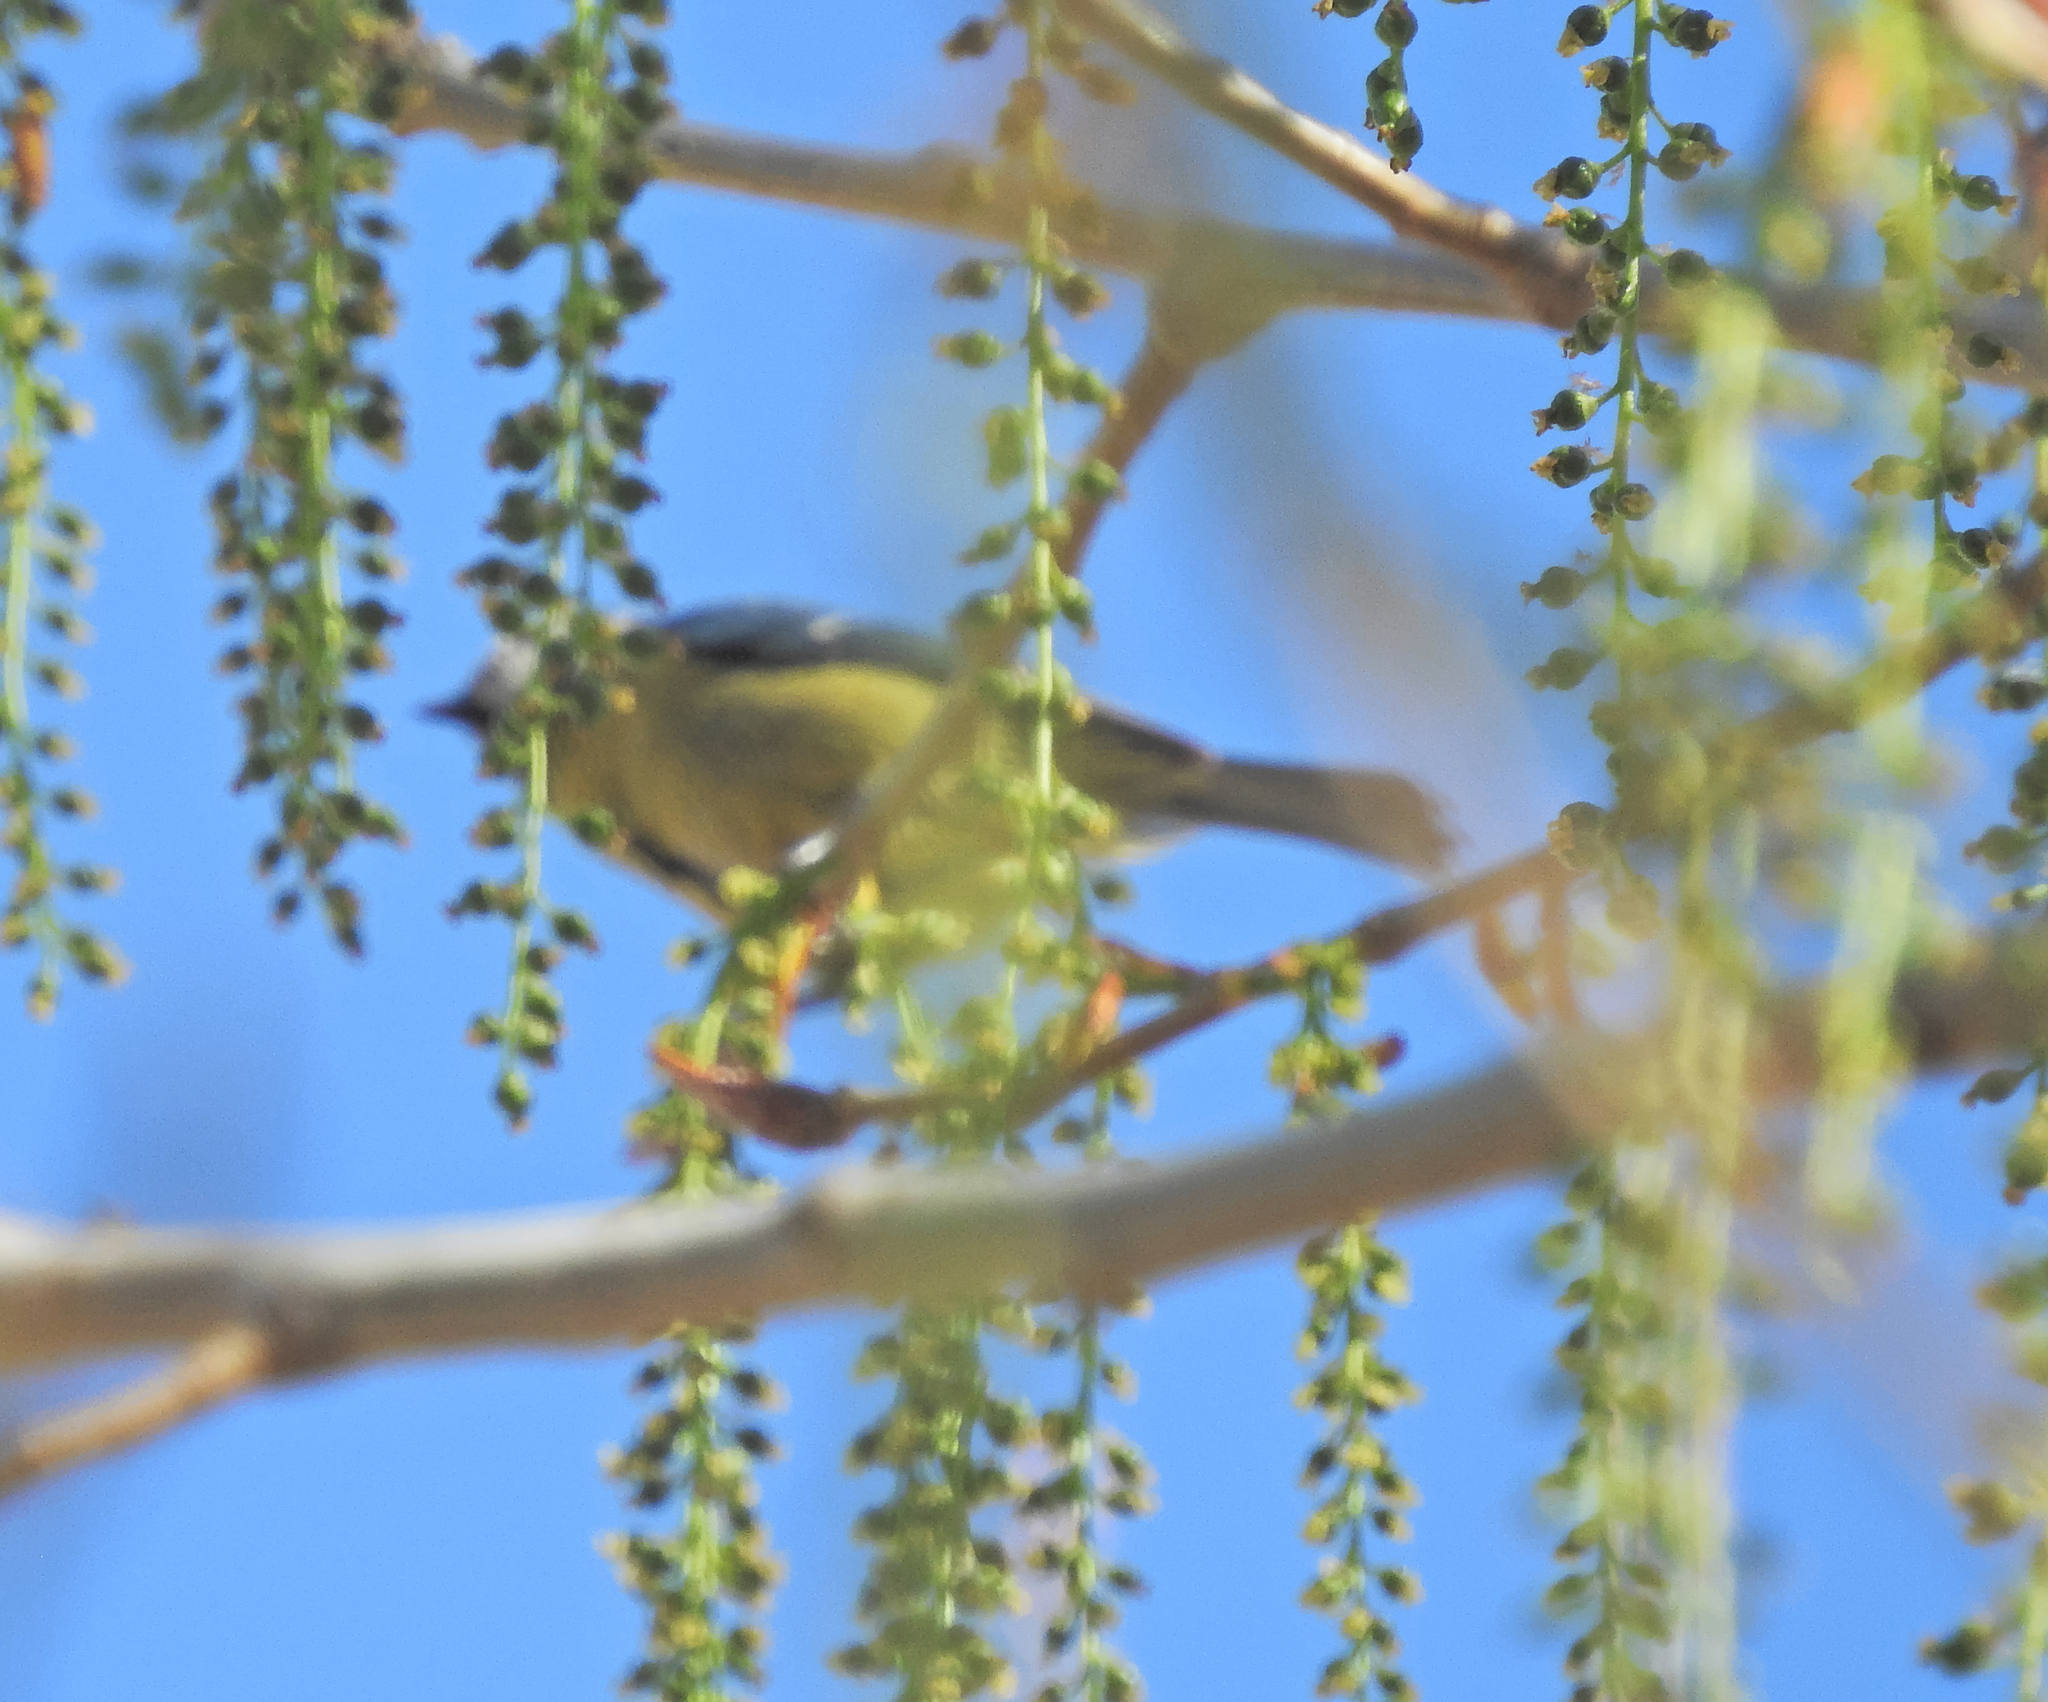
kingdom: Animalia
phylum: Chordata
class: Aves
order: Passeriformes
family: Paridae
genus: Cyanistes
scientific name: Cyanistes caeruleus
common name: Eurasian blue tit
